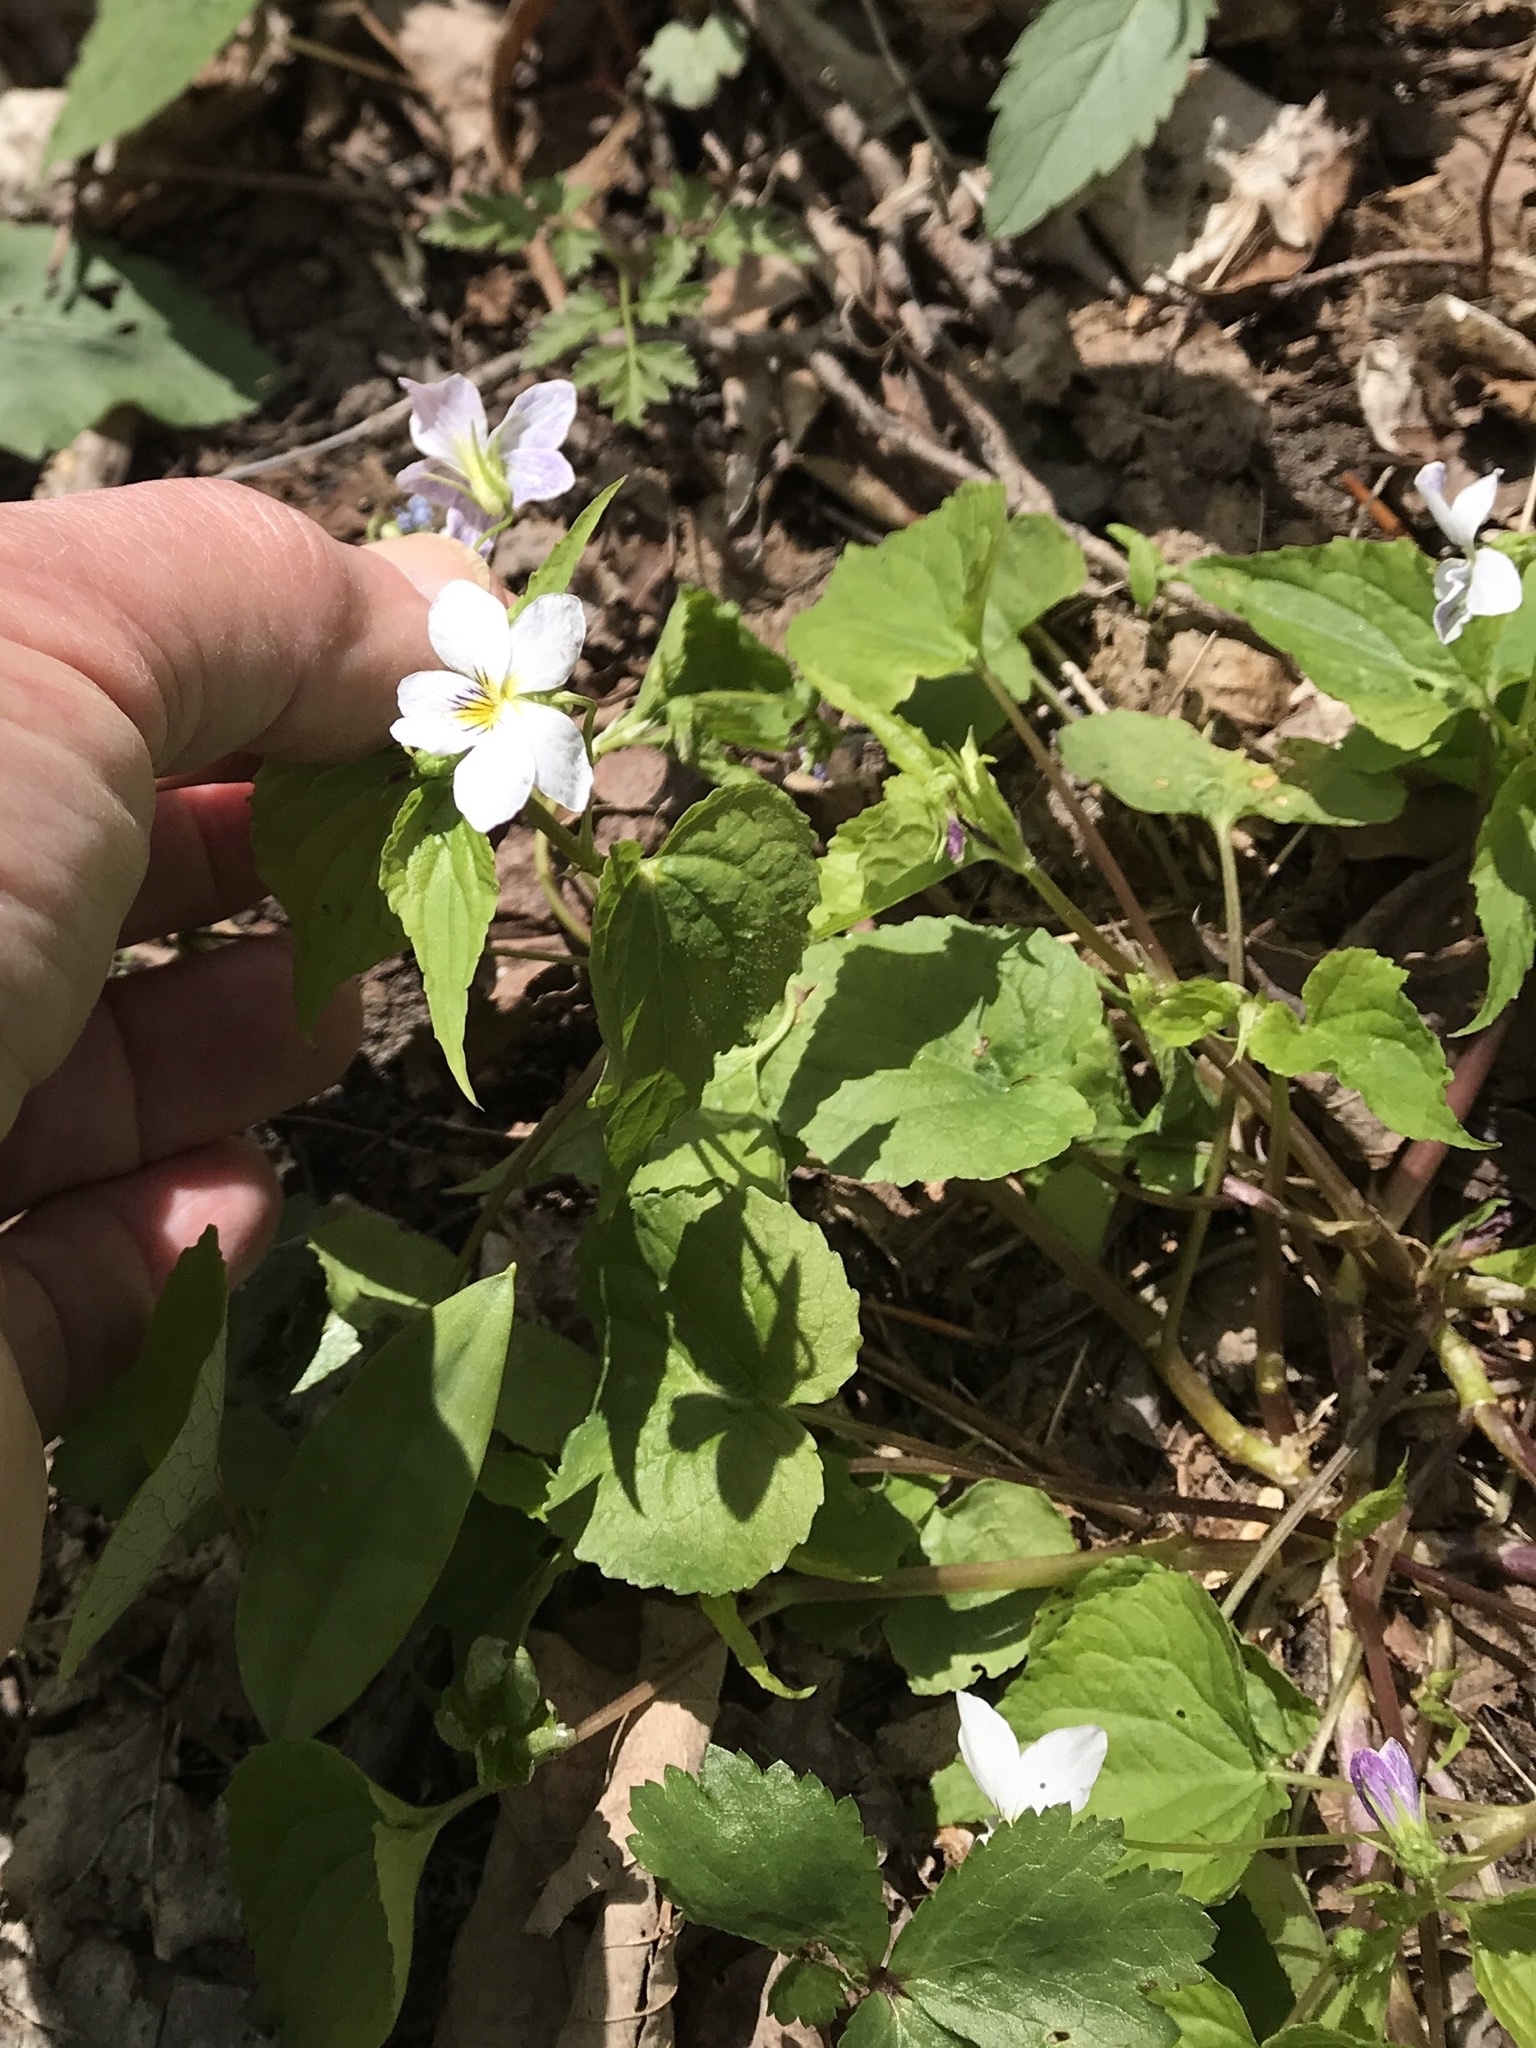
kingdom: Plantae
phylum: Tracheophyta
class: Magnoliopsida
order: Malpighiales
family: Violaceae
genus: Viola
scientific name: Viola canadensis
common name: Canada violet
